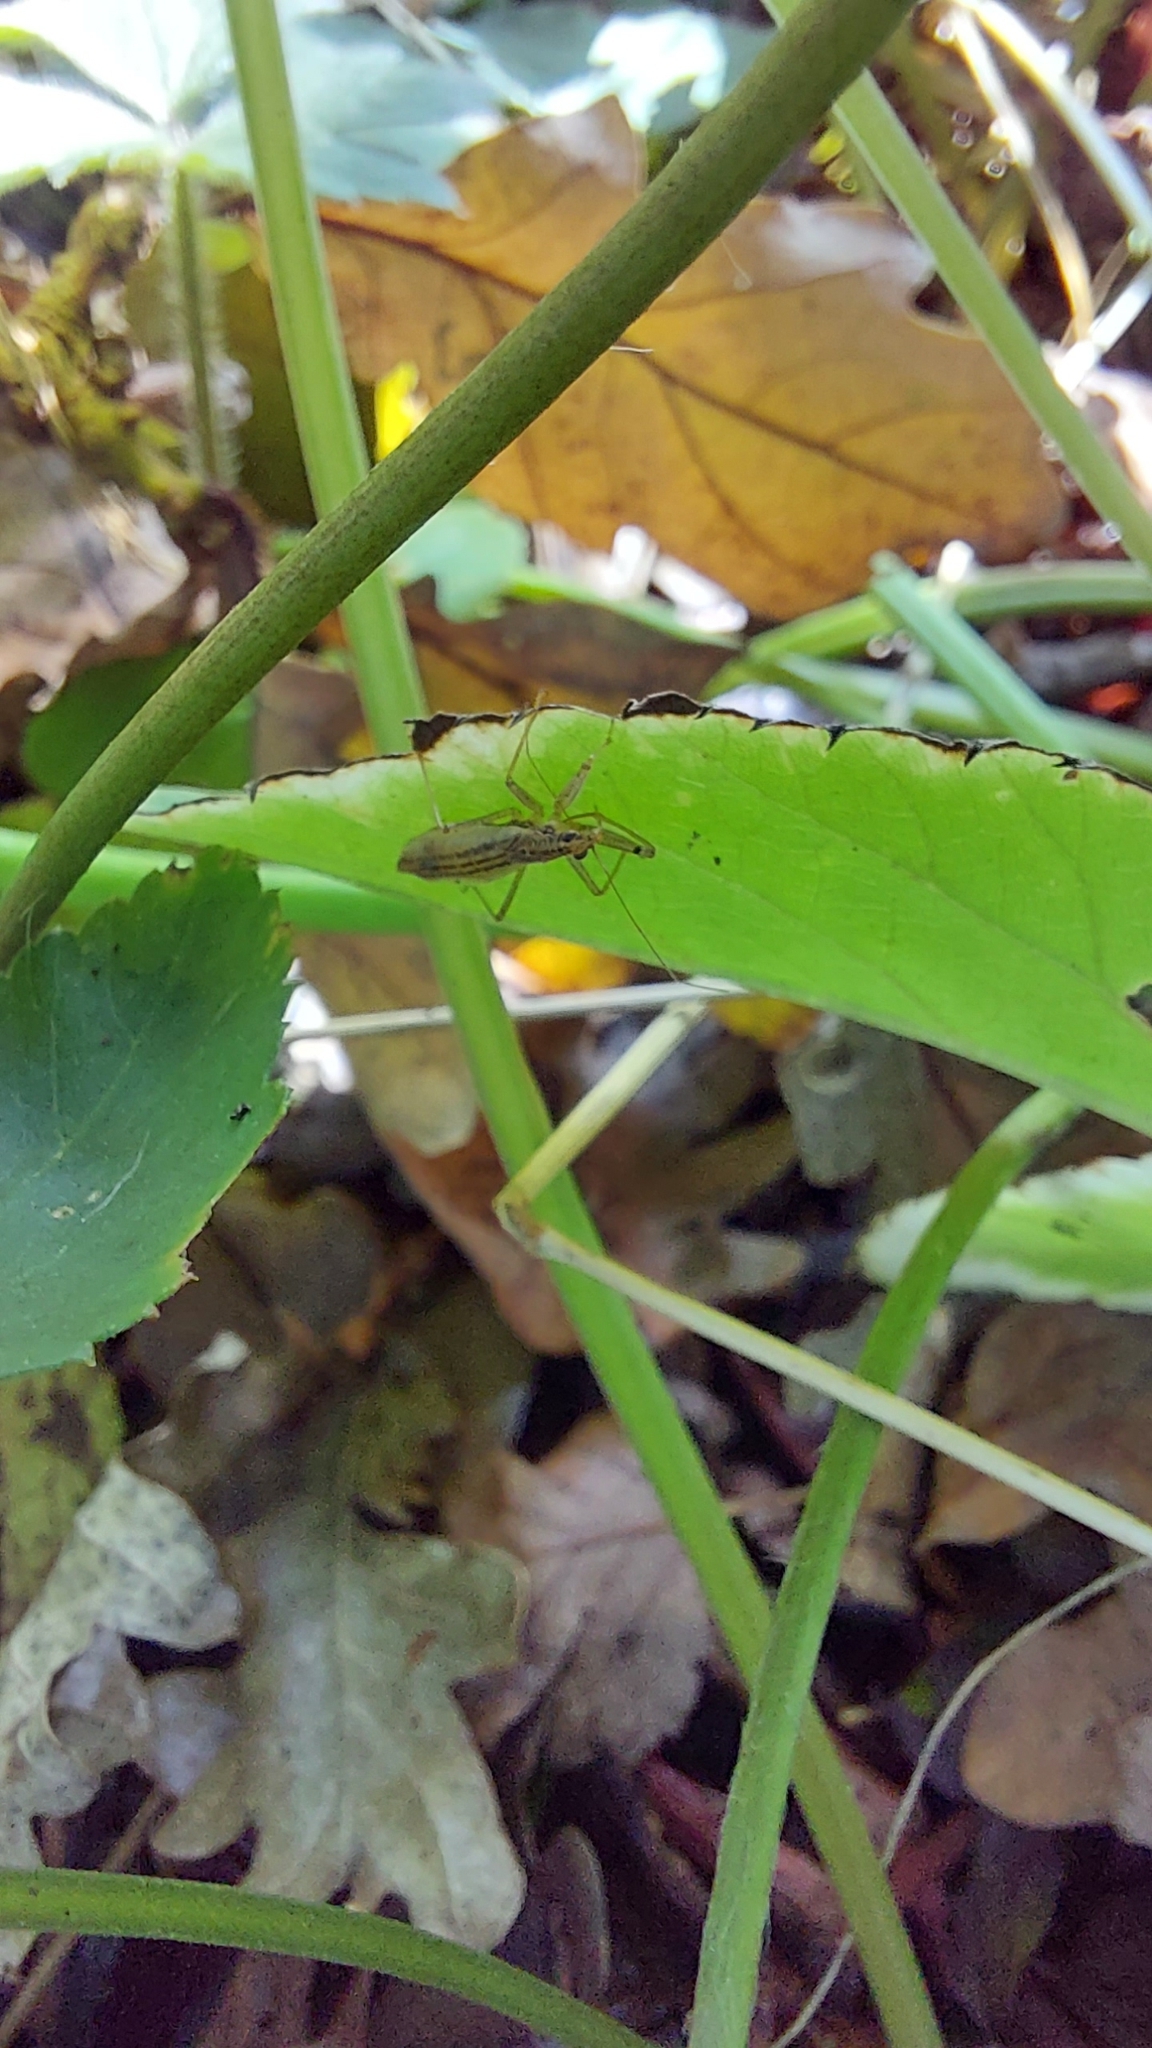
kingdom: Animalia
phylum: Arthropoda
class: Insecta
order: Hemiptera
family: Nabidae
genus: Nabis
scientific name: Nabis limbatus
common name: Marsh damselbug
